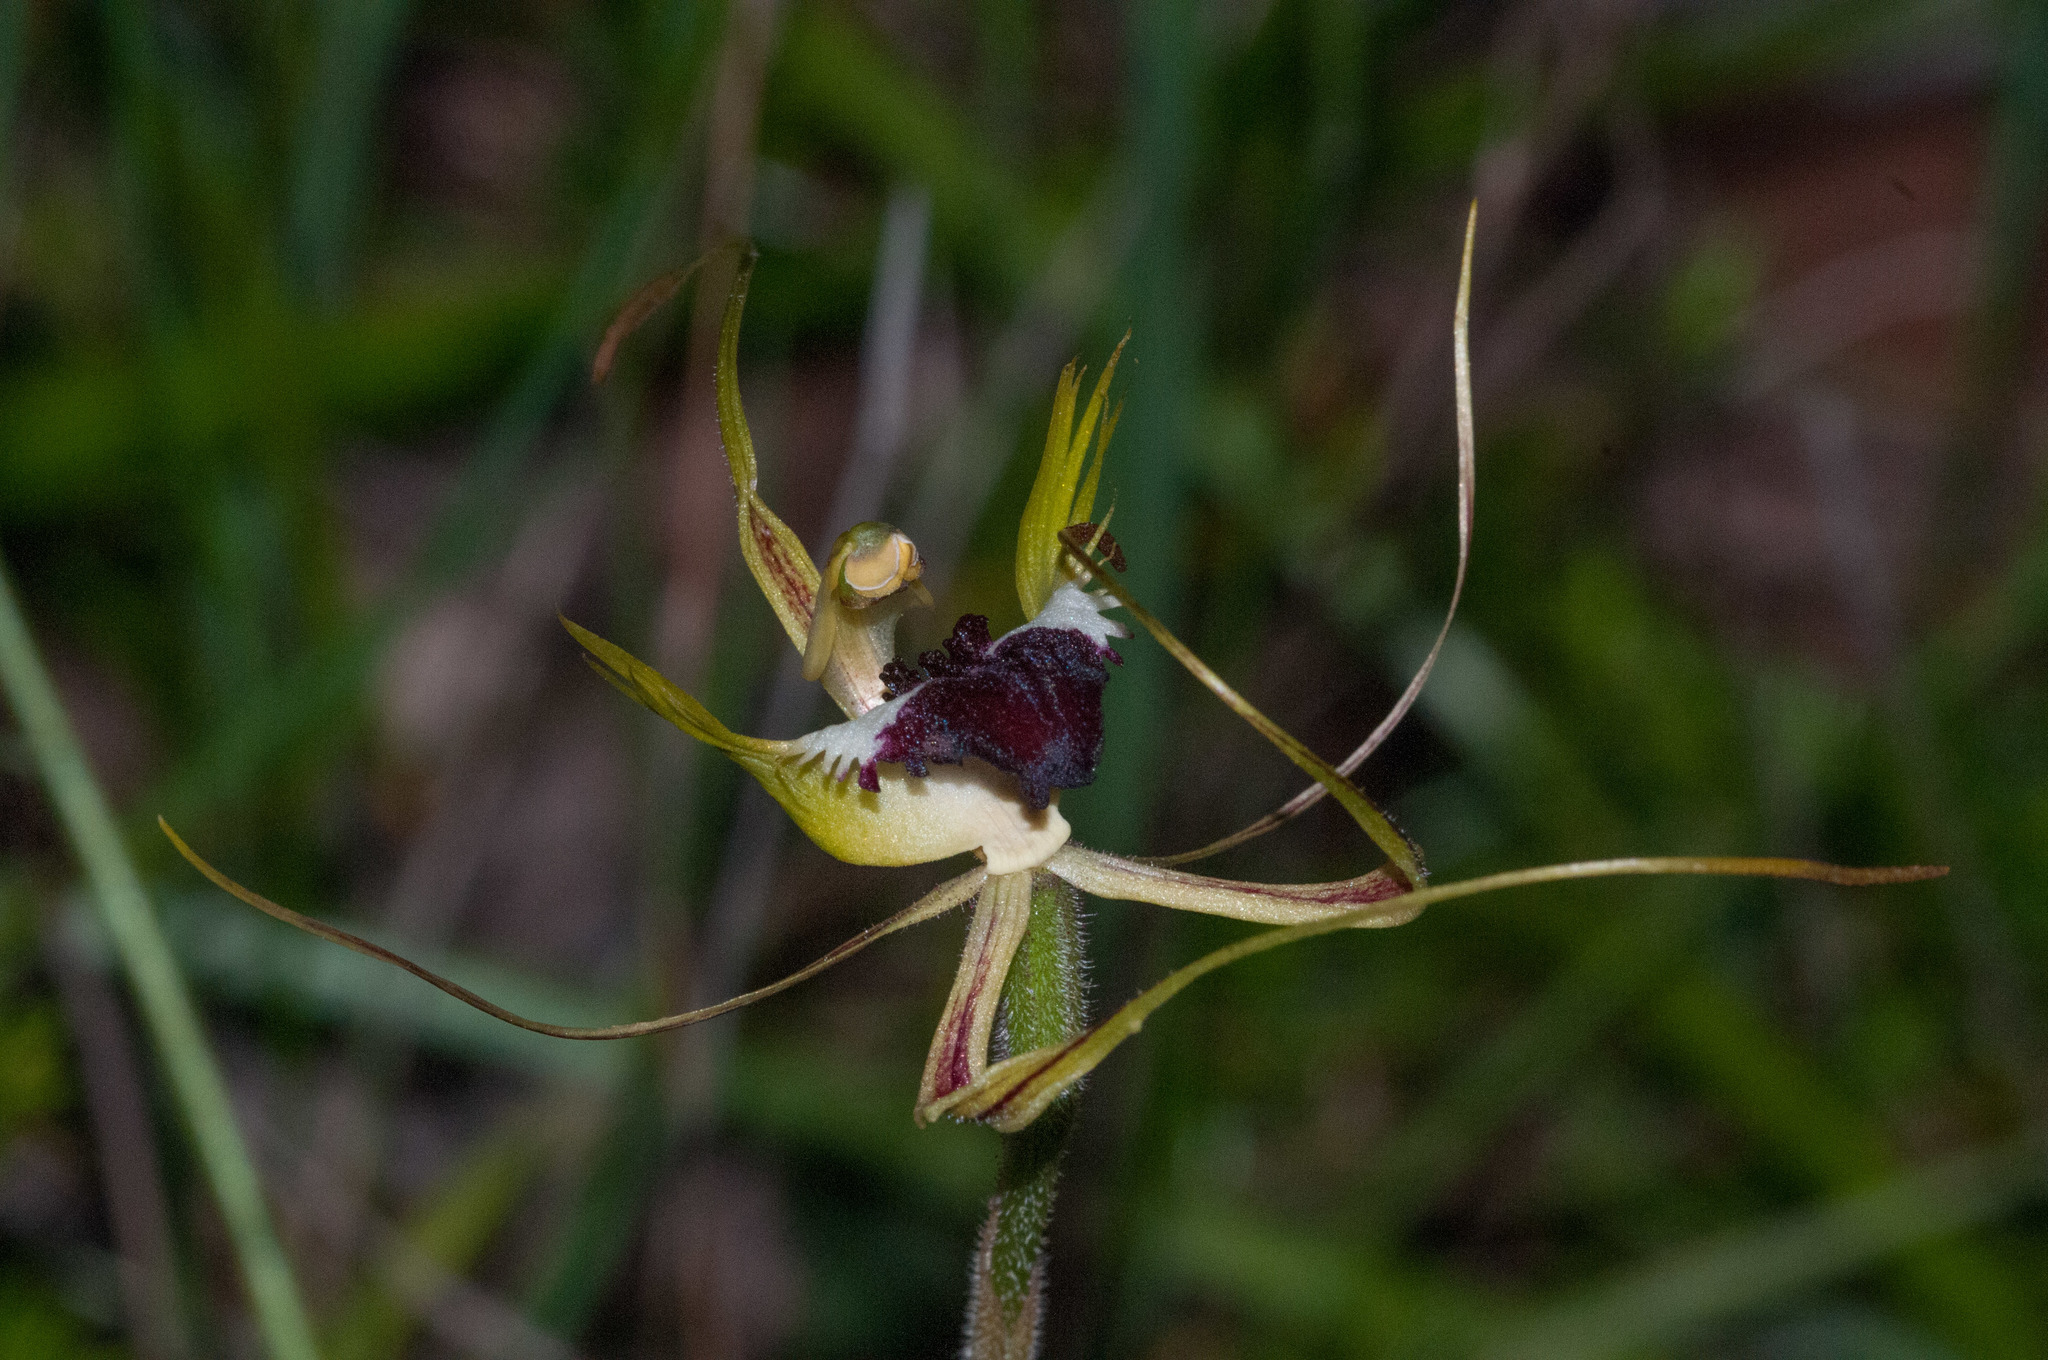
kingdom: Plantae
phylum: Tracheophyta
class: Liliopsida
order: Asparagales
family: Orchidaceae
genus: Caladenia
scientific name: Caladenia tentaculata
